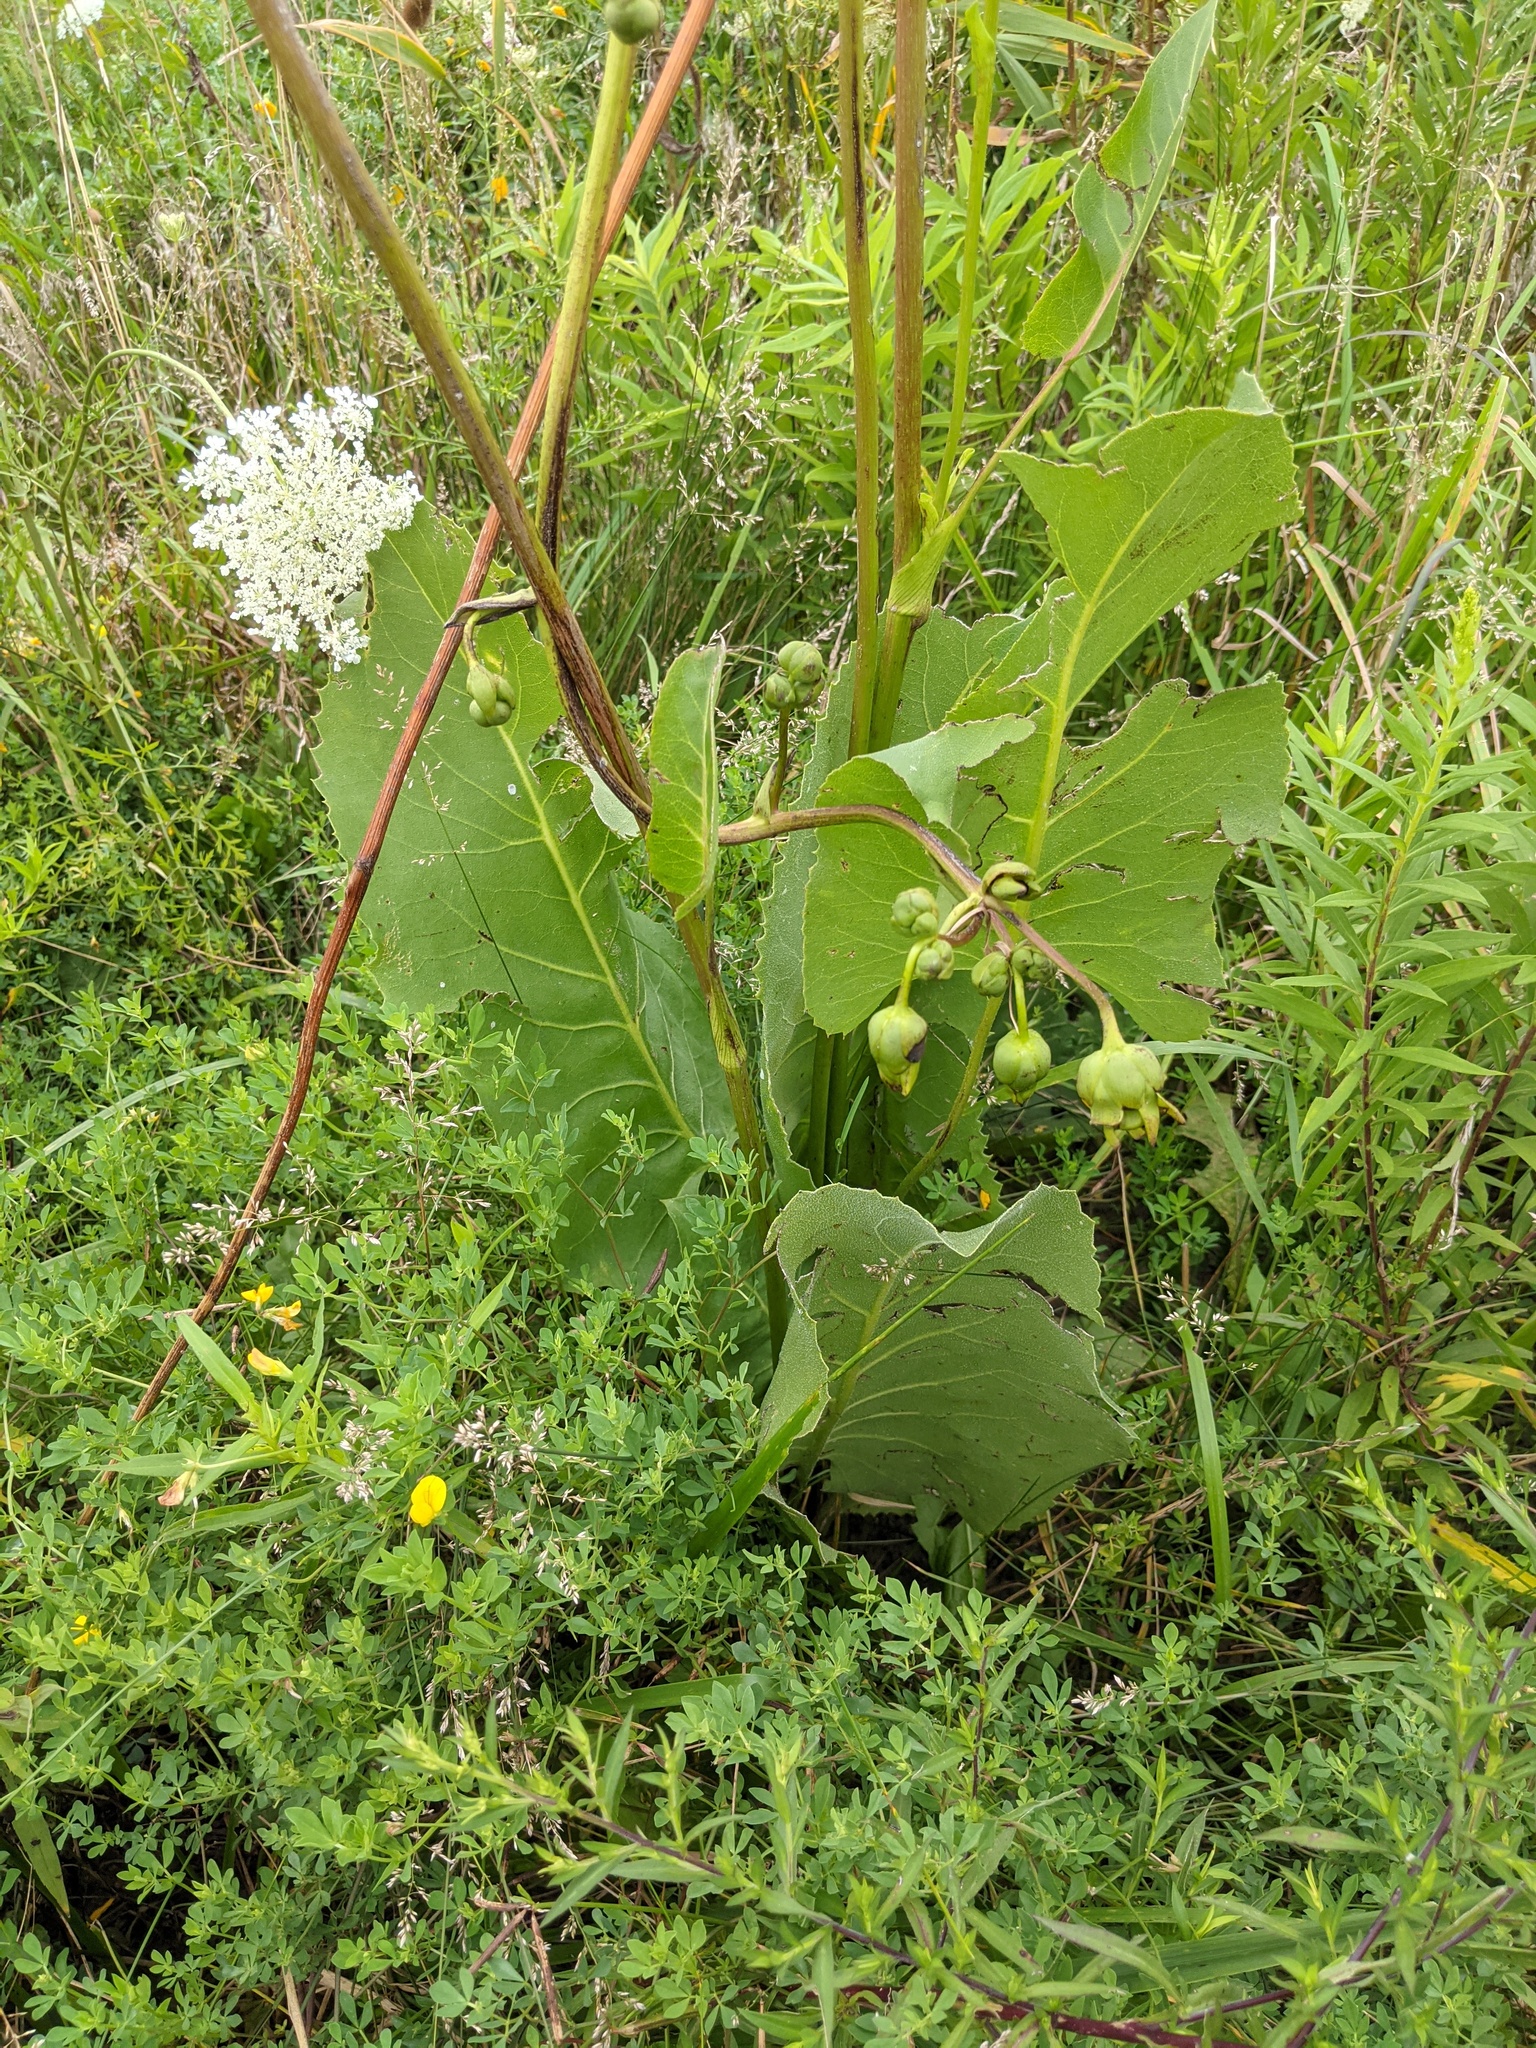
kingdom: Plantae
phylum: Tracheophyta
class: Magnoliopsida
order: Asterales
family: Asteraceae
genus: Silphium
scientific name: Silphium terebinthinaceum
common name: Basal-leaf rosinweed
